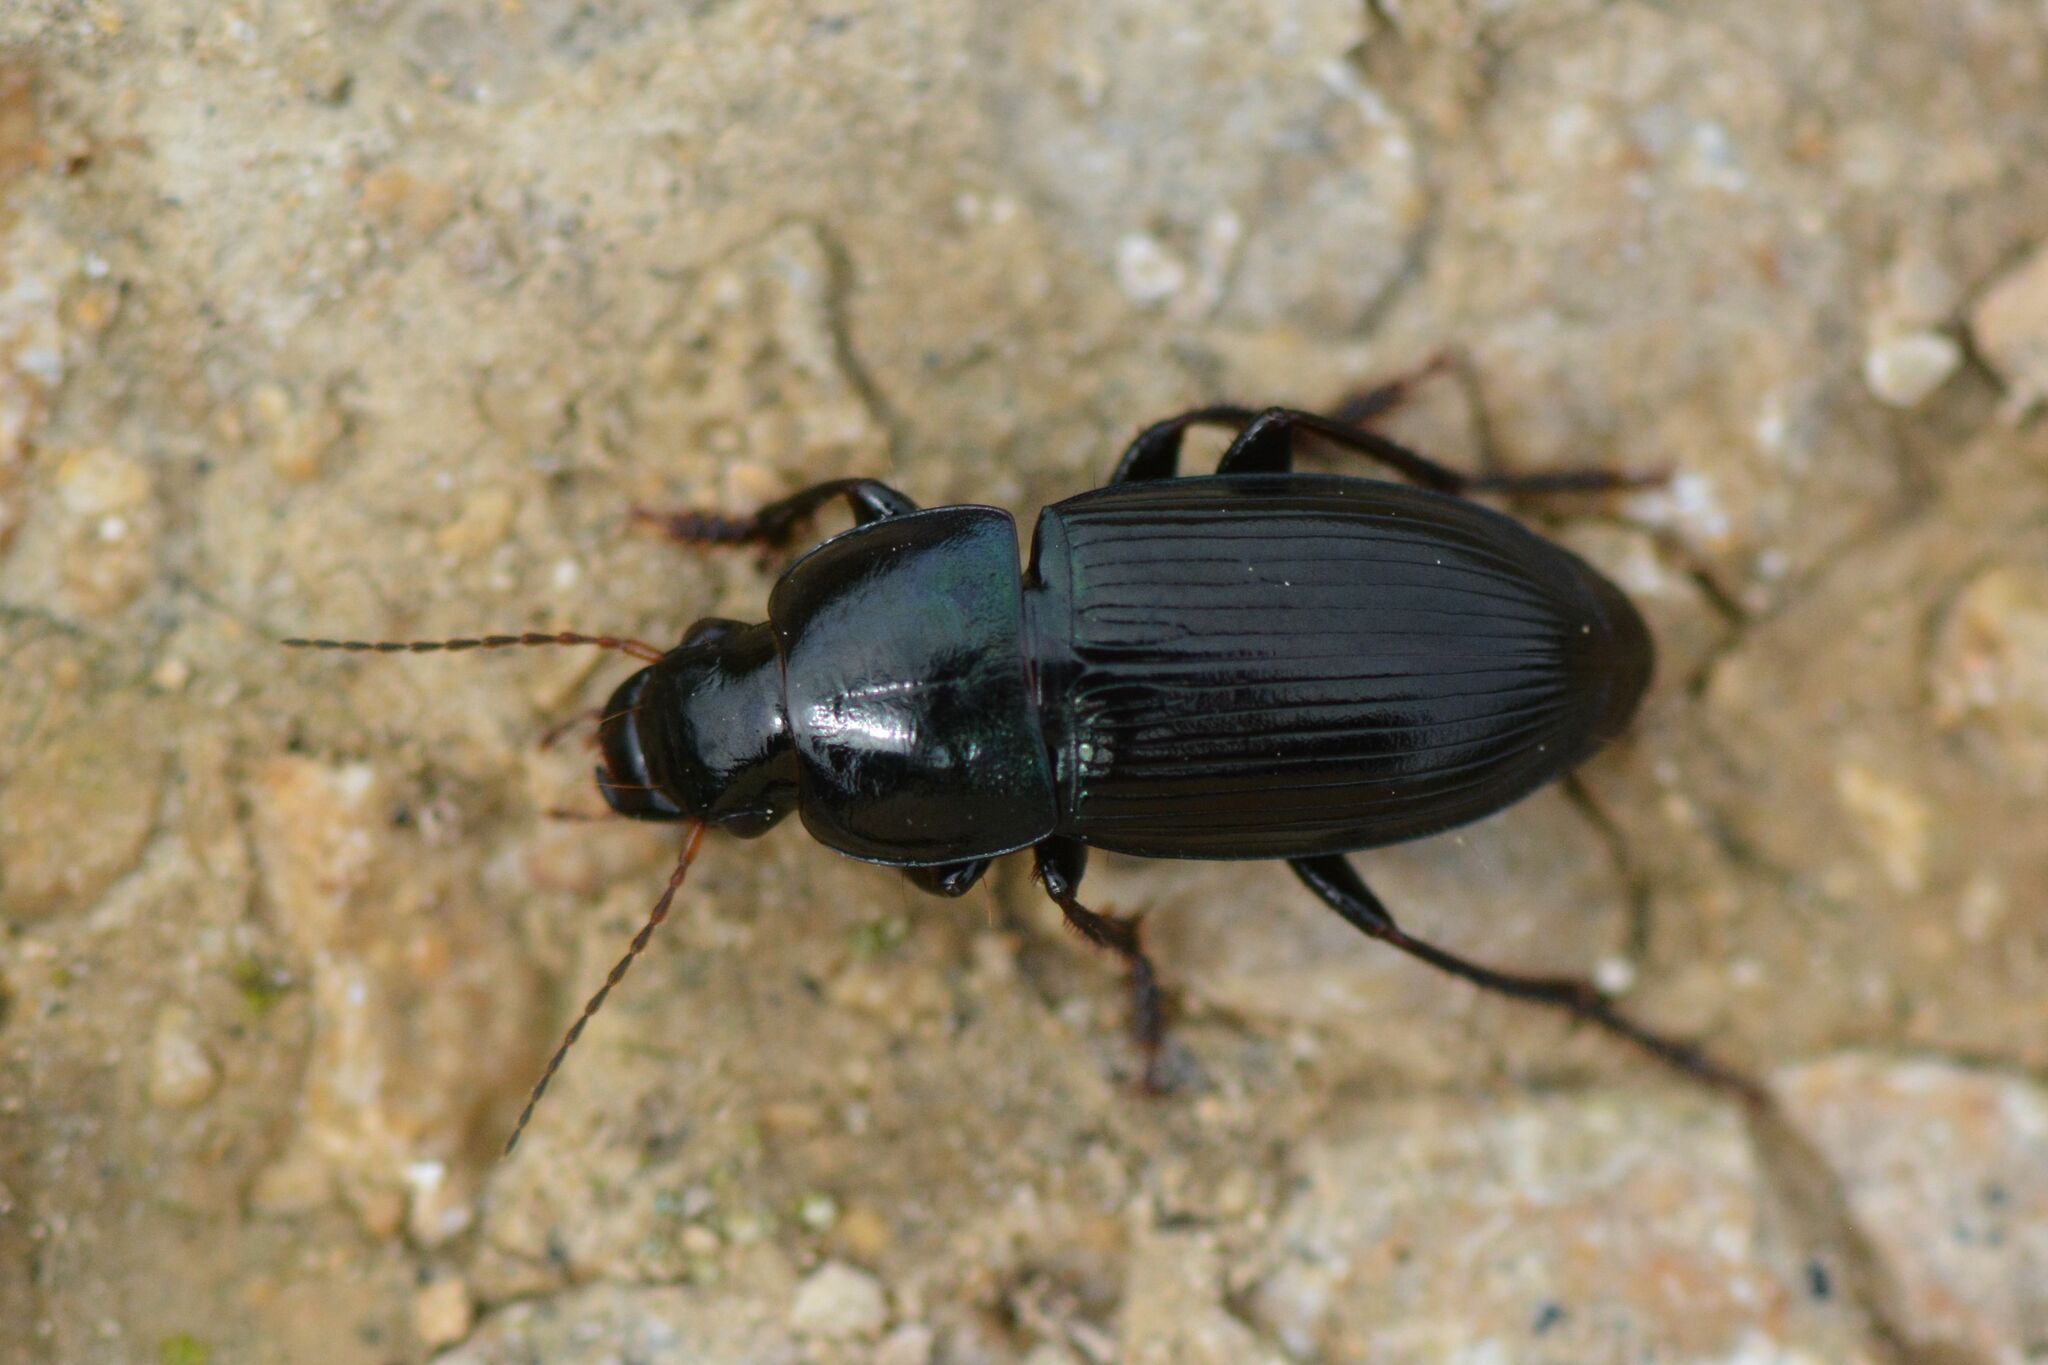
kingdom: Animalia
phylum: Arthropoda
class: Insecta
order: Coleoptera
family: Carabidae
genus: Harpalus
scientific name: Harpalus dimidiatus
